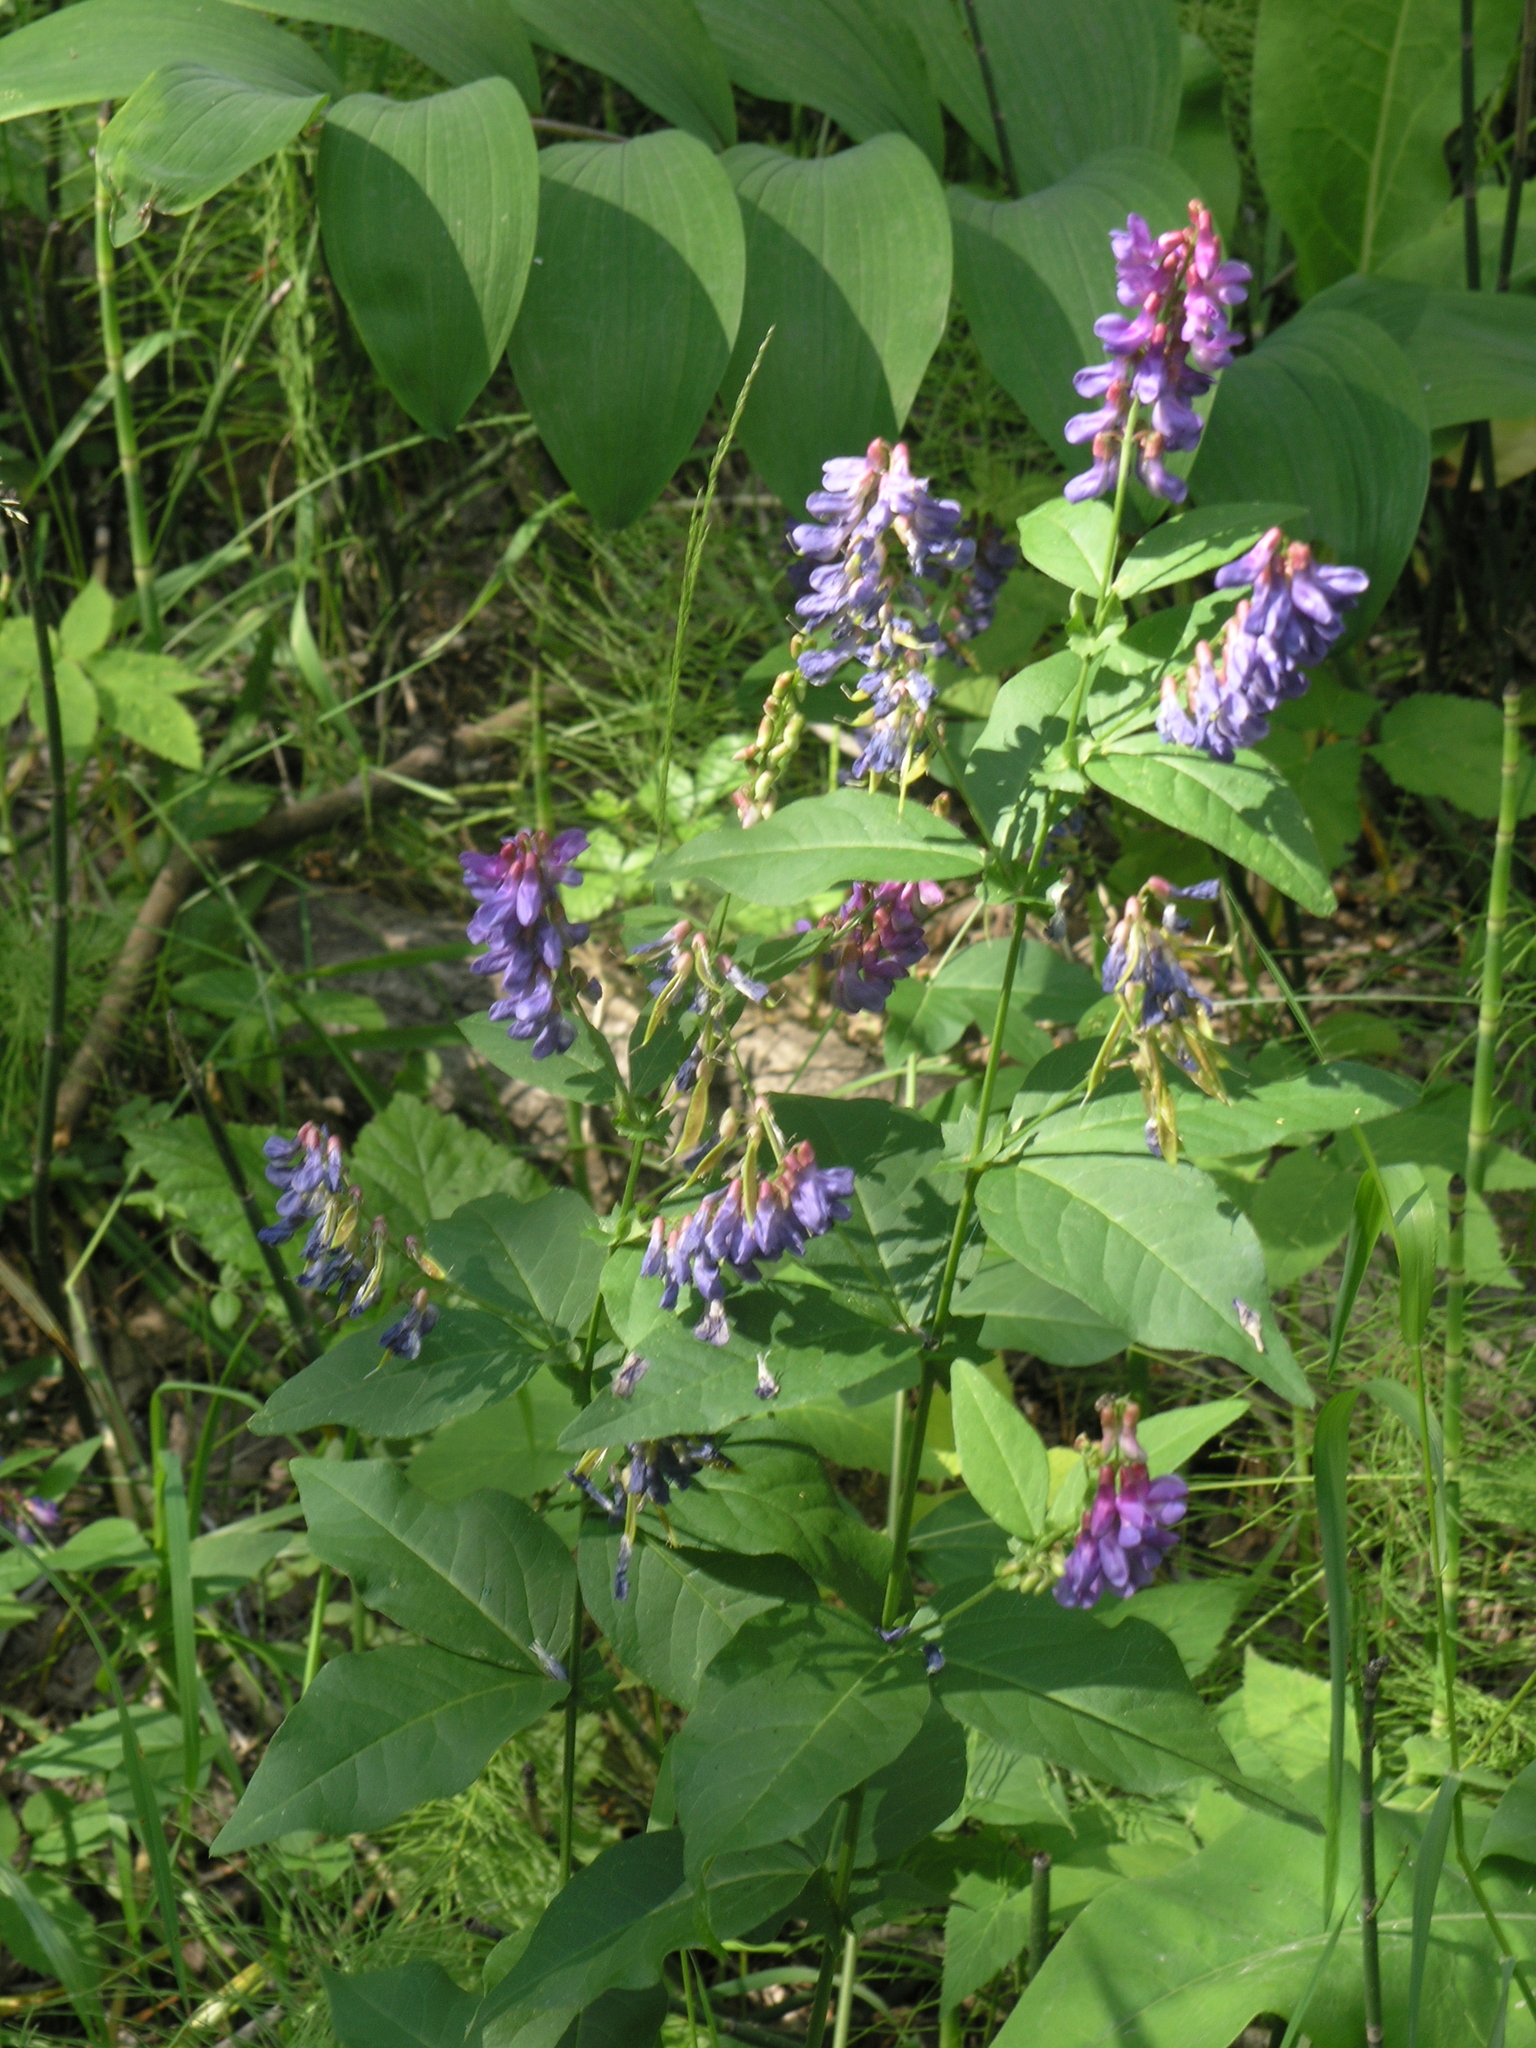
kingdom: Plantae
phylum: Tracheophyta
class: Magnoliopsida
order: Fabales
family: Fabaceae
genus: Vicia
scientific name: Vicia unijuga
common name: Two-leaf vetch
